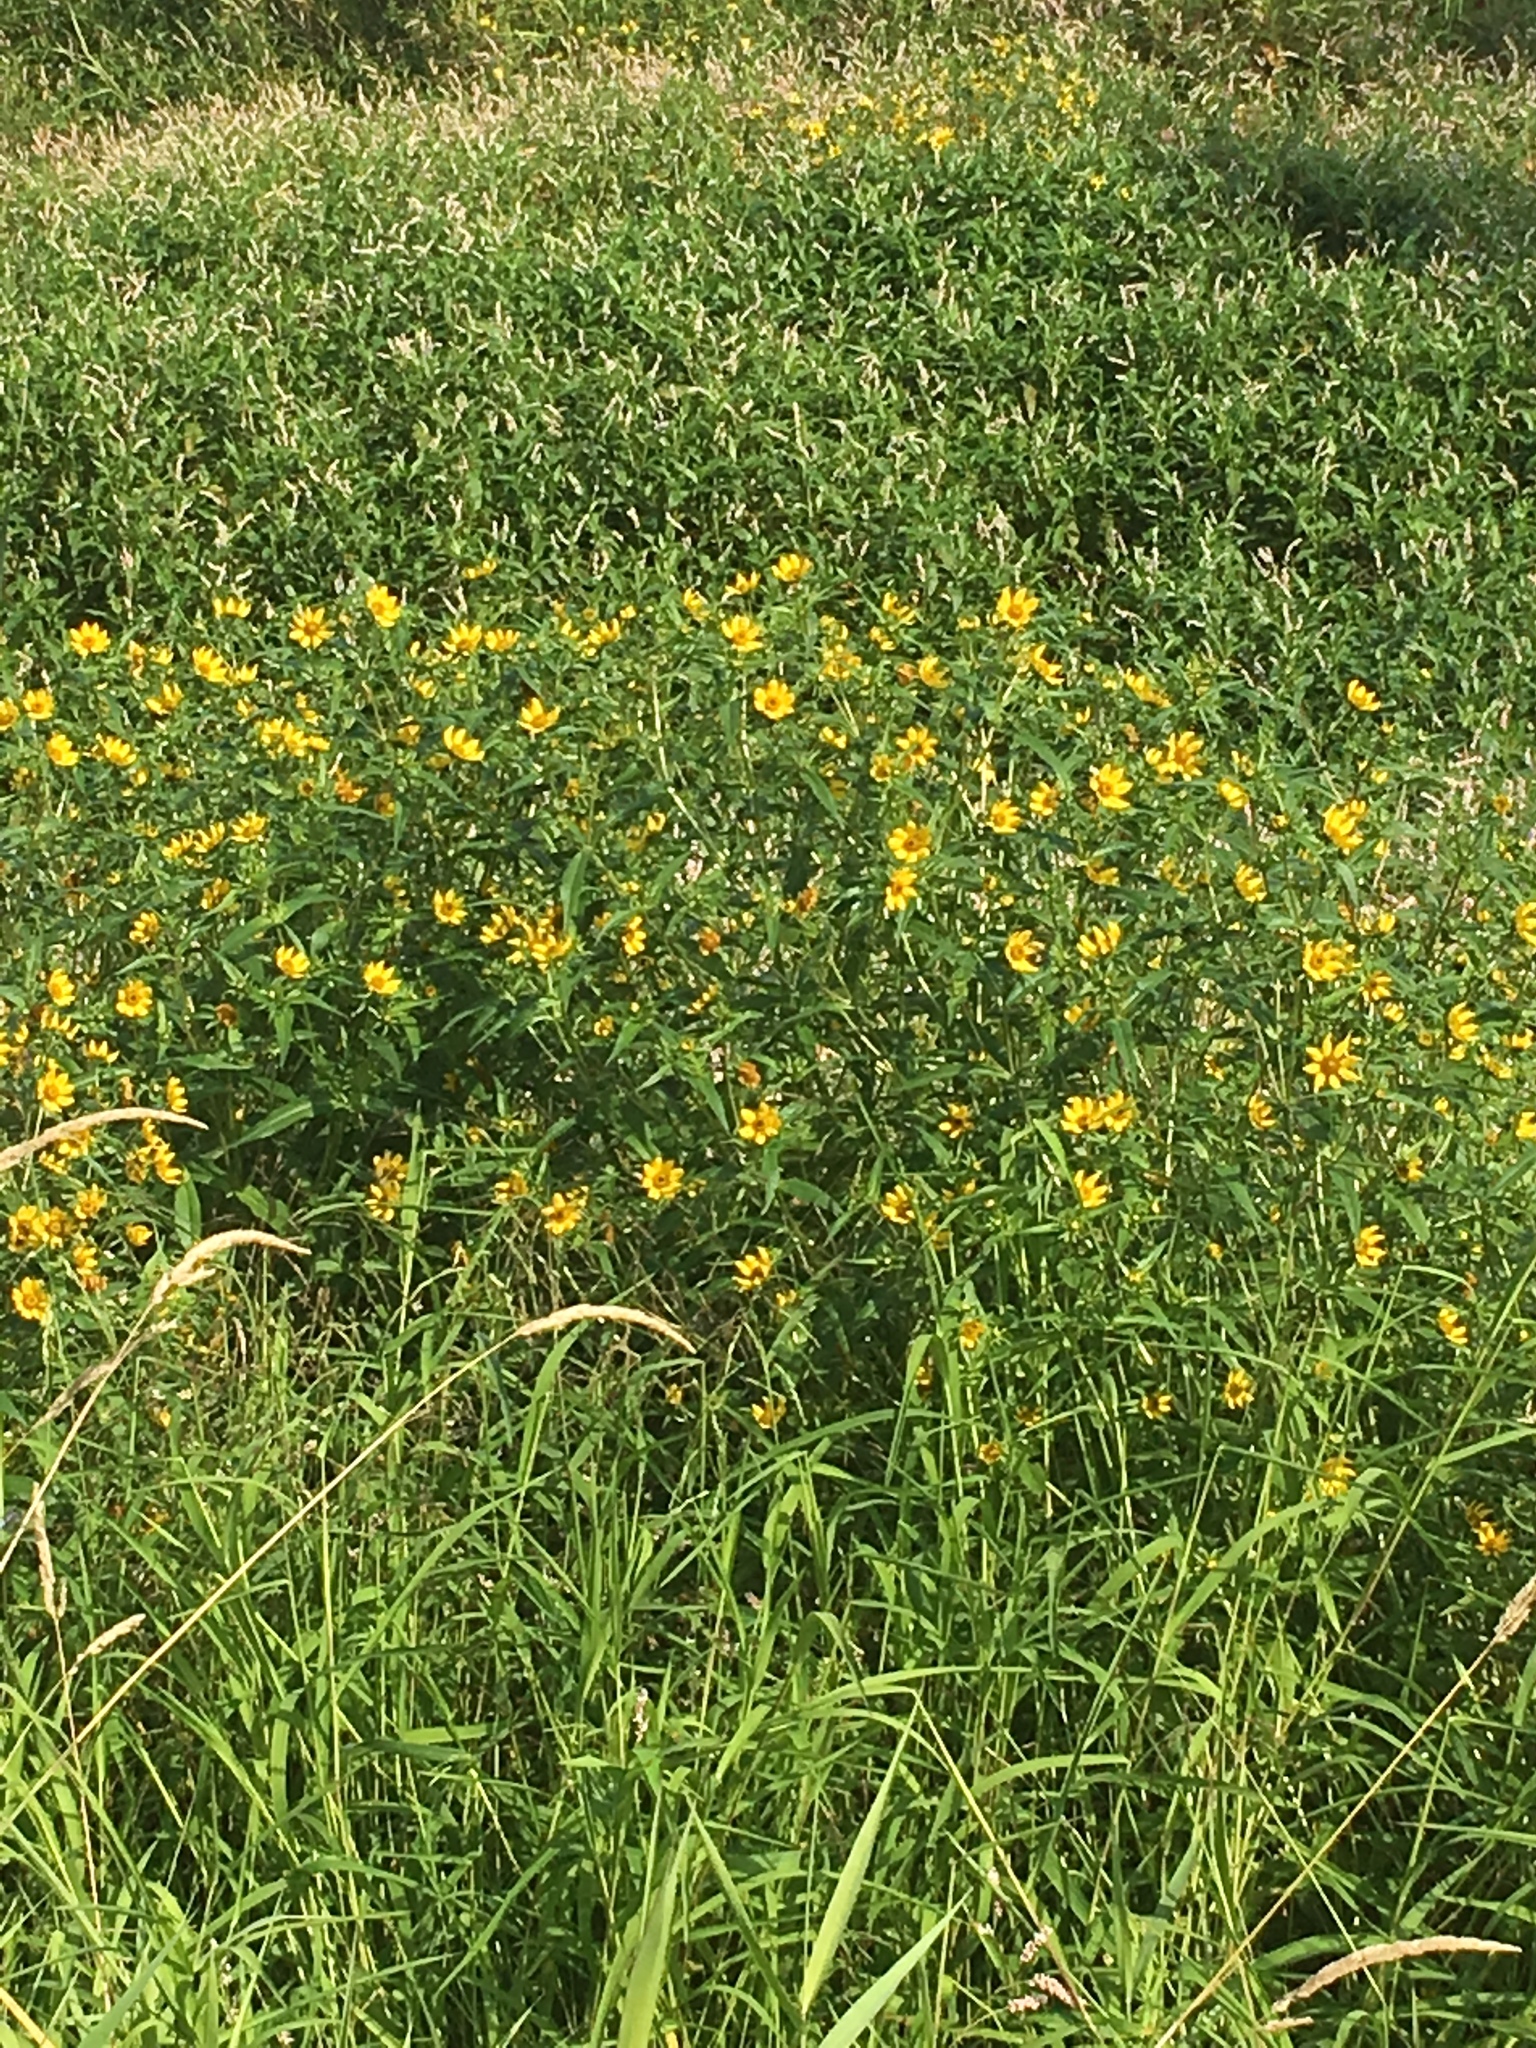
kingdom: Plantae
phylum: Tracheophyta
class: Magnoliopsida
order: Asterales
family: Asteraceae
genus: Bidens
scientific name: Bidens cernua
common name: Nodding bur-marigold
